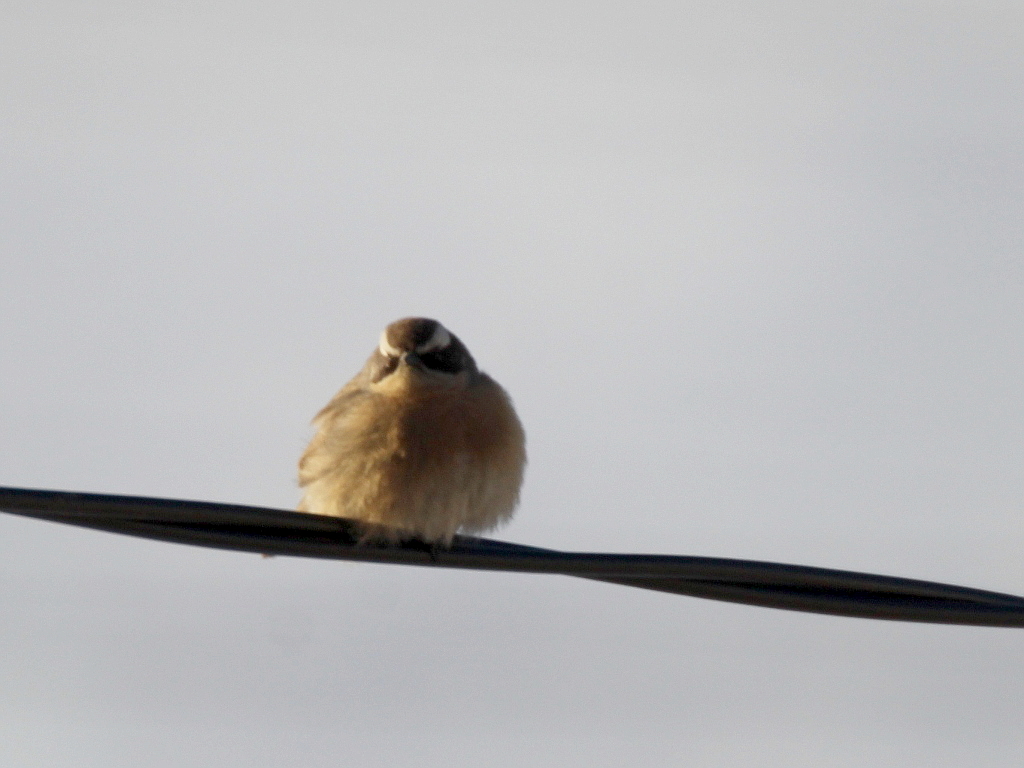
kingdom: Animalia
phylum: Chordata
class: Aves
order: Passeriformes
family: Prunellidae
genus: Prunella
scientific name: Prunella fulvescens
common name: Brown accentor
